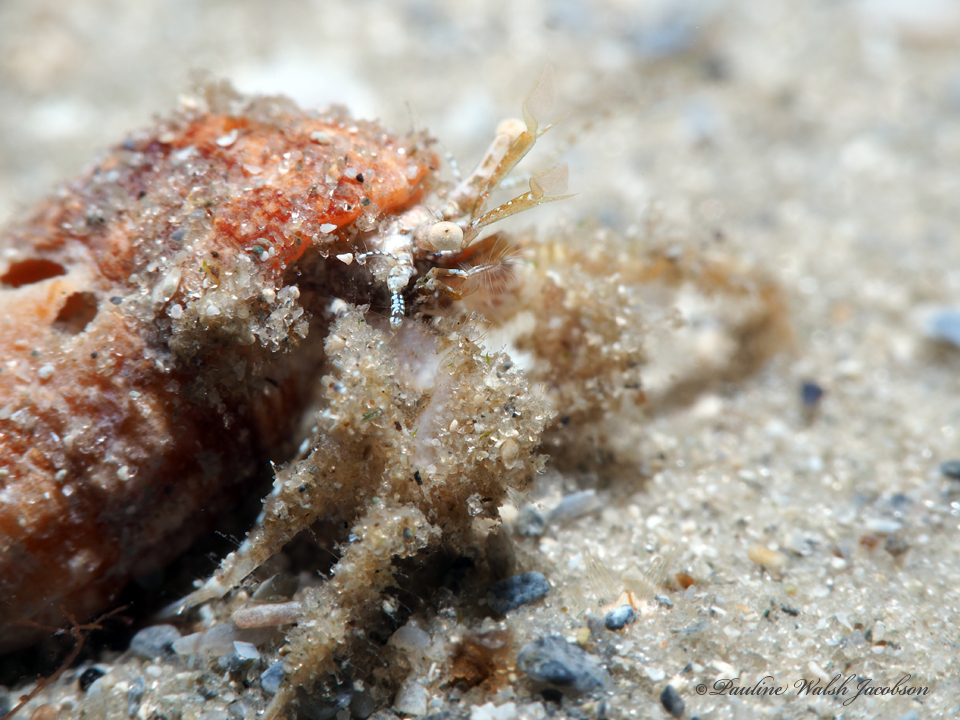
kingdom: Animalia
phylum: Arthropoda
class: Malacostraca
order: Decapoda
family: Paguridae
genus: Pagurus
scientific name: Pagurus maclaughlinae
